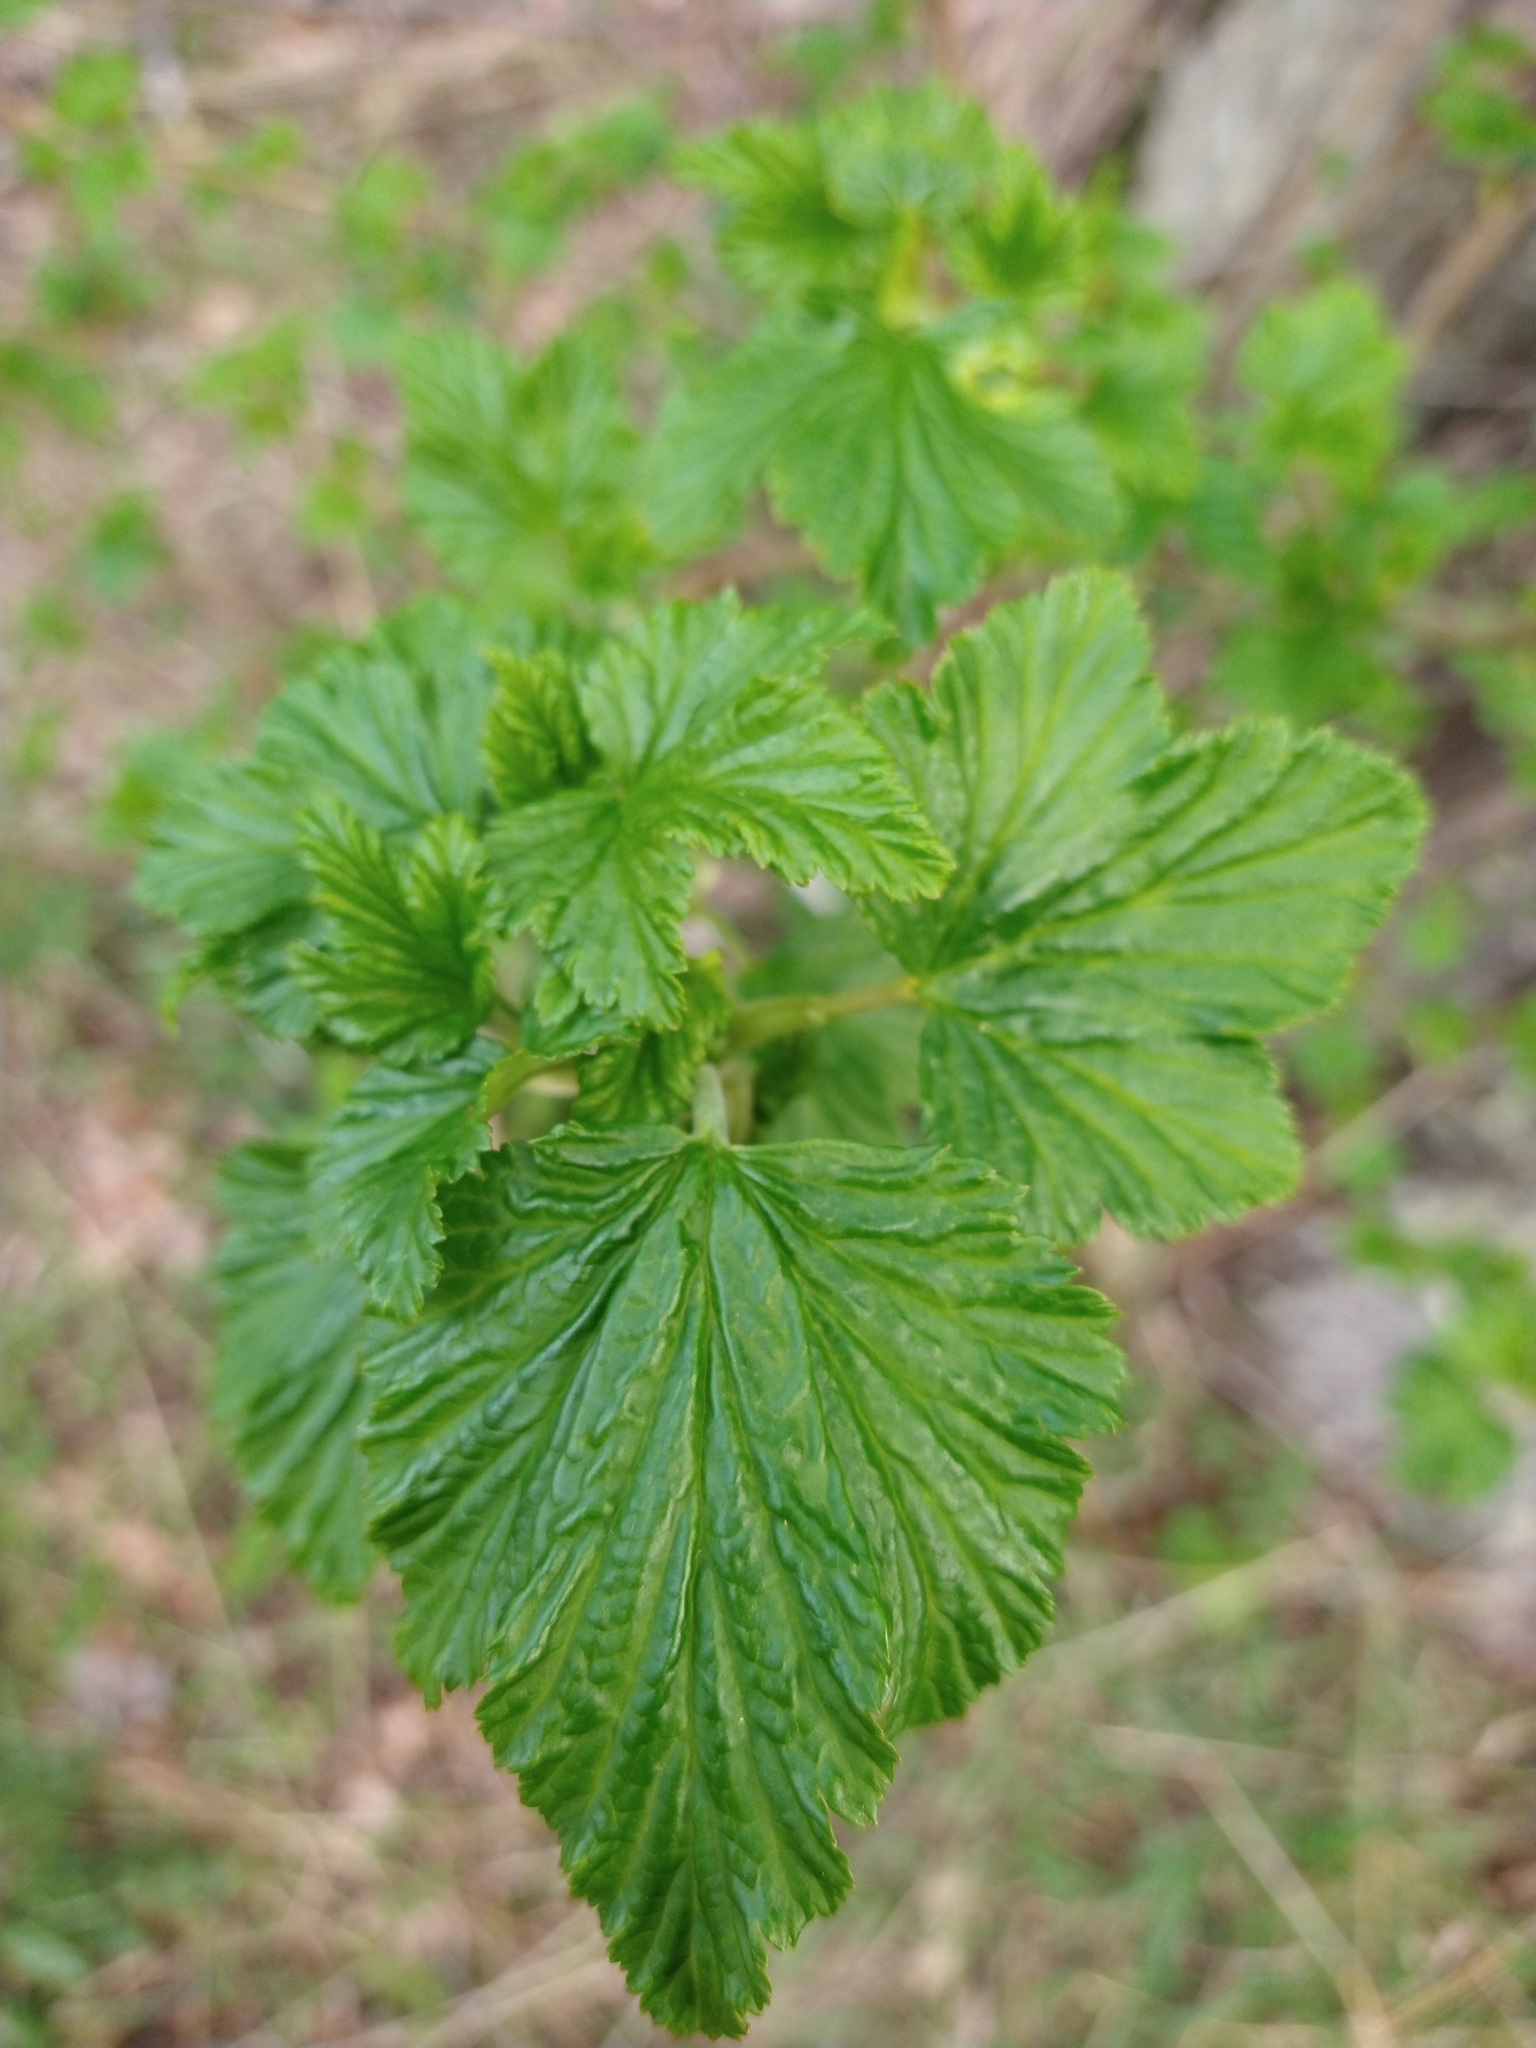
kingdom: Plantae
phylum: Tracheophyta
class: Magnoliopsida
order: Saxifragales
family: Grossulariaceae
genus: Ribes
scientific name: Ribes magellanicum
